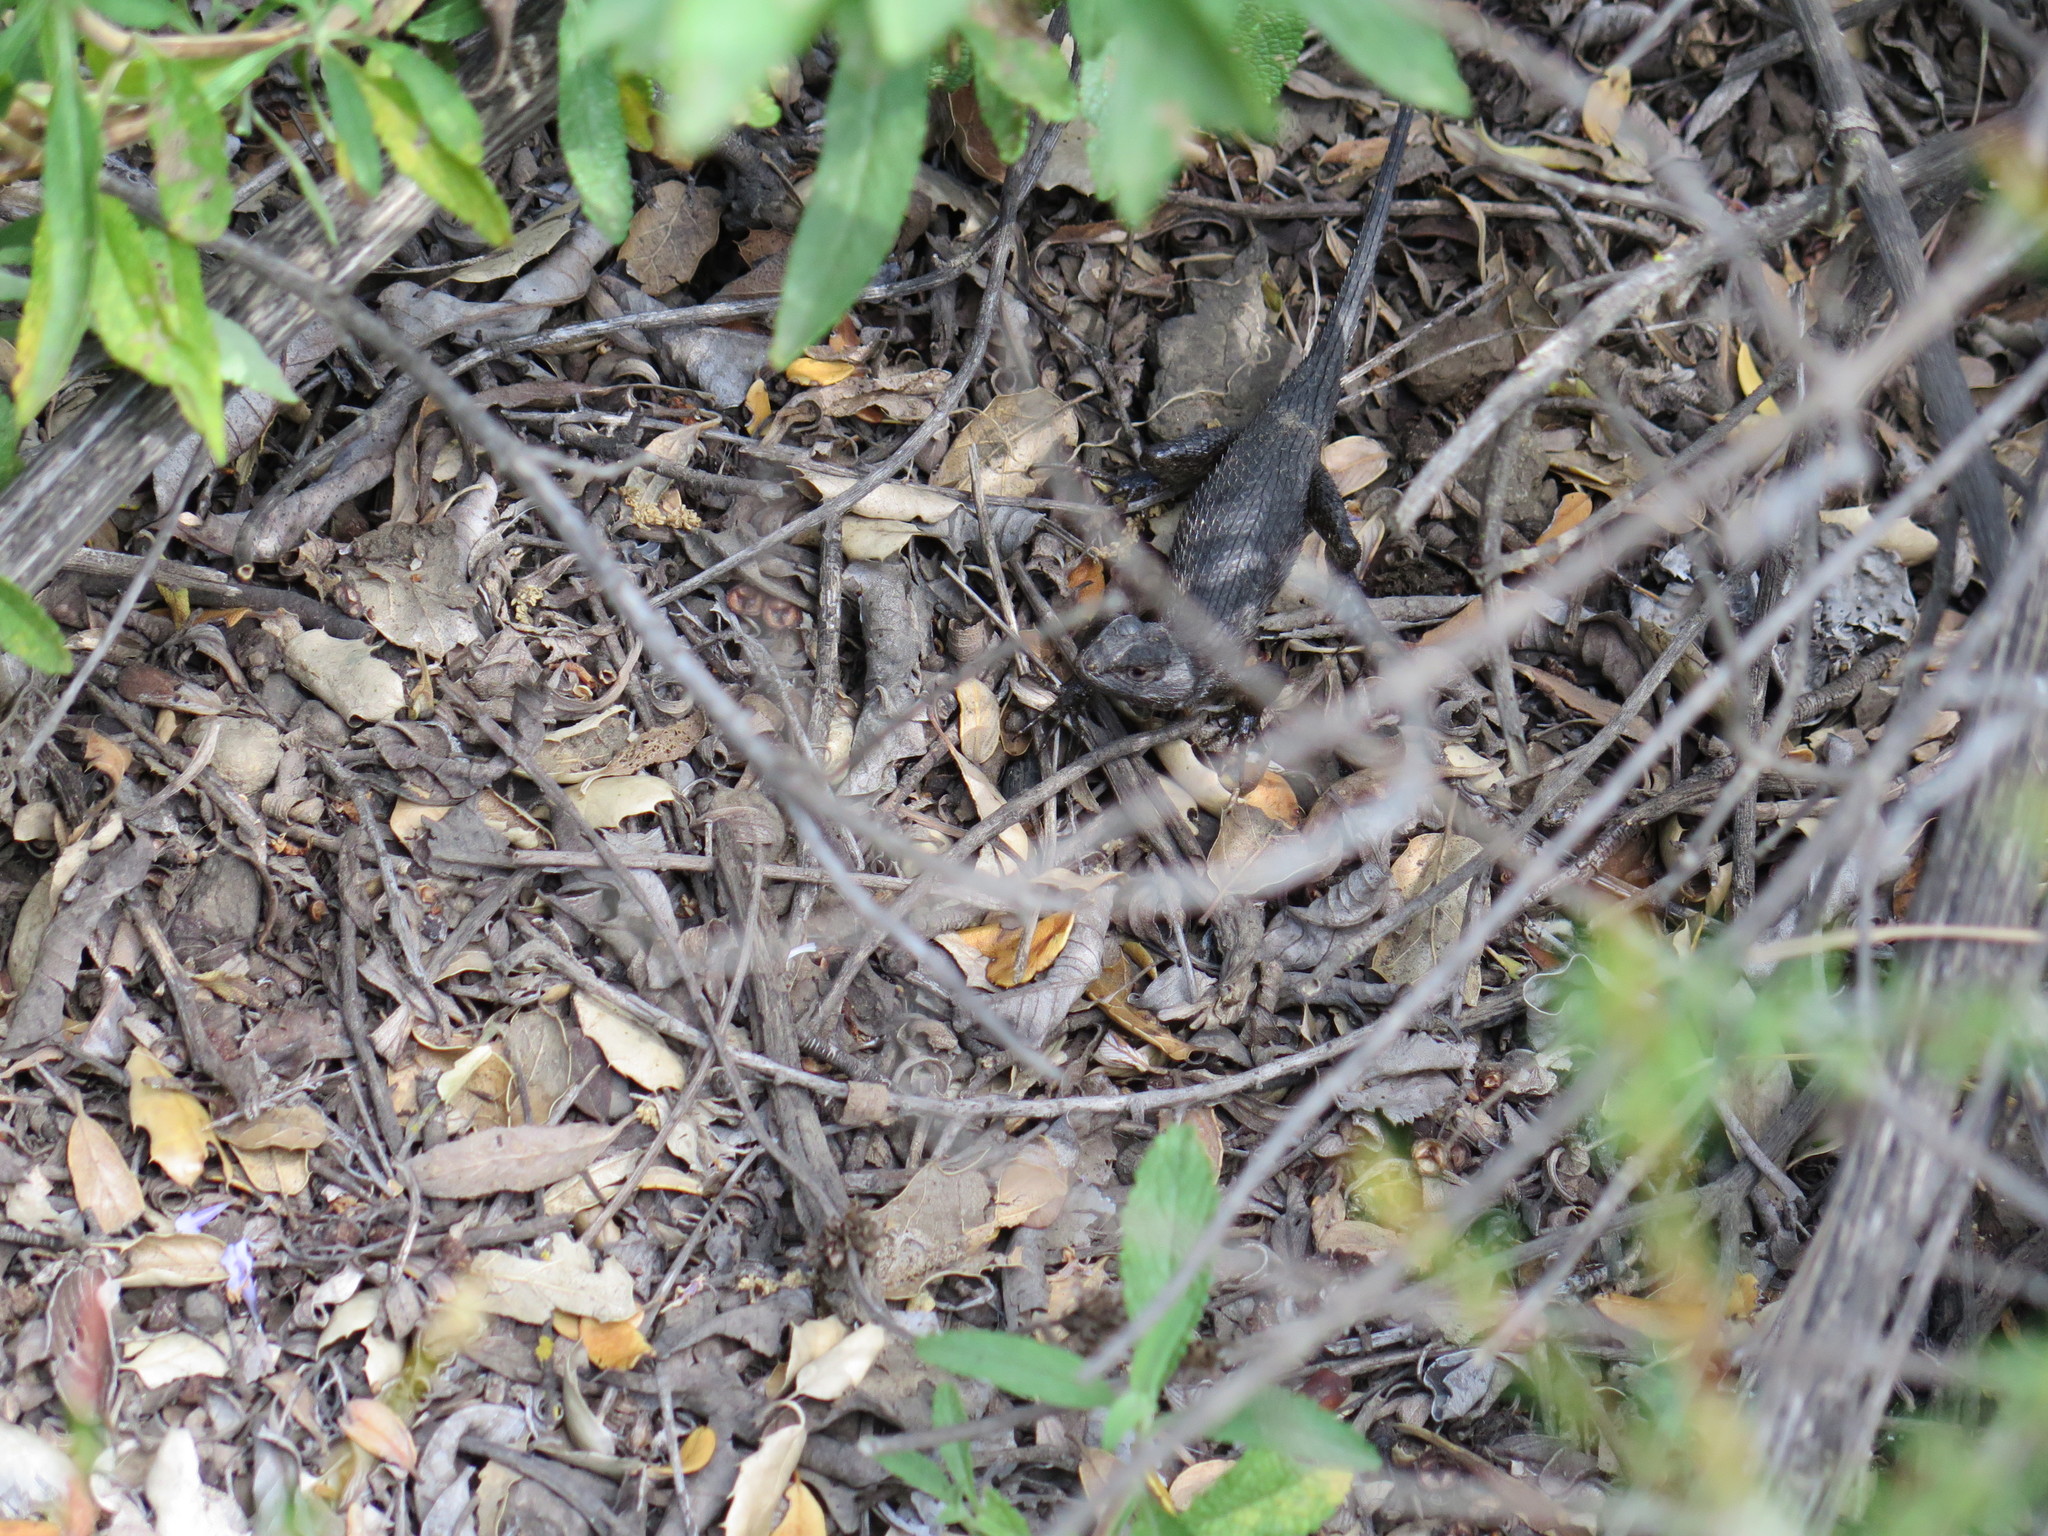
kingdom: Animalia
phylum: Chordata
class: Squamata
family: Phrynosomatidae
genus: Sceloporus
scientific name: Sceloporus occidentalis
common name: Western fence lizard
